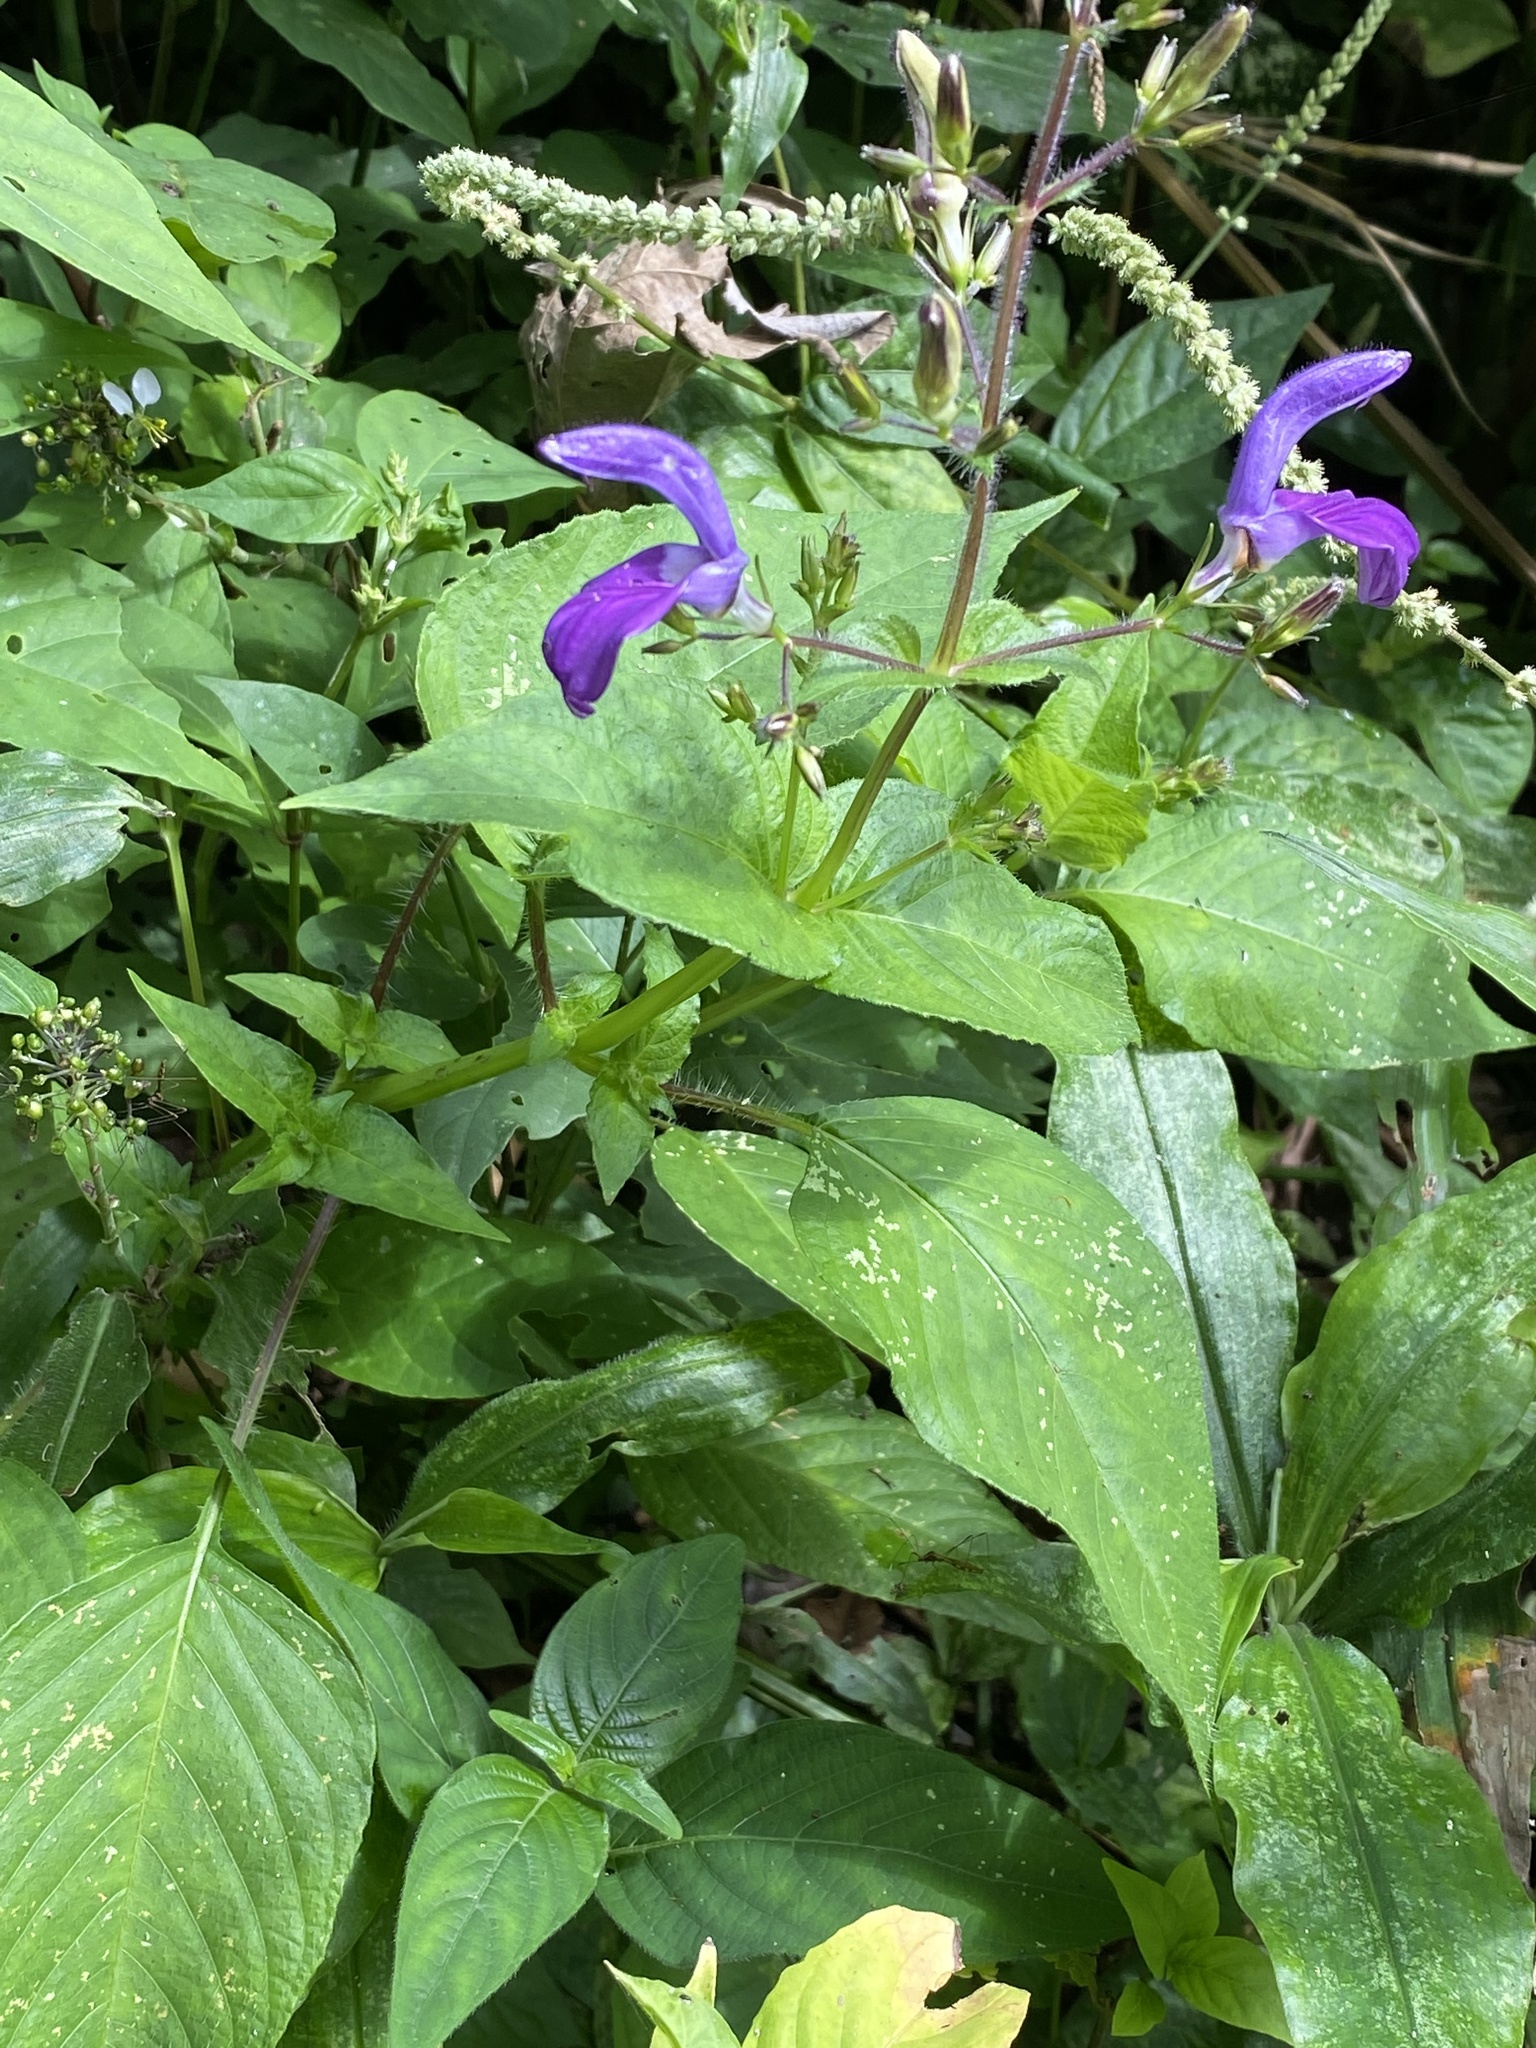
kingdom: Plantae
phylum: Tracheophyta
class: Magnoliopsida
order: Lamiales
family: Acanthaceae
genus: Brillantaisia
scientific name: Brillantaisia lamium
